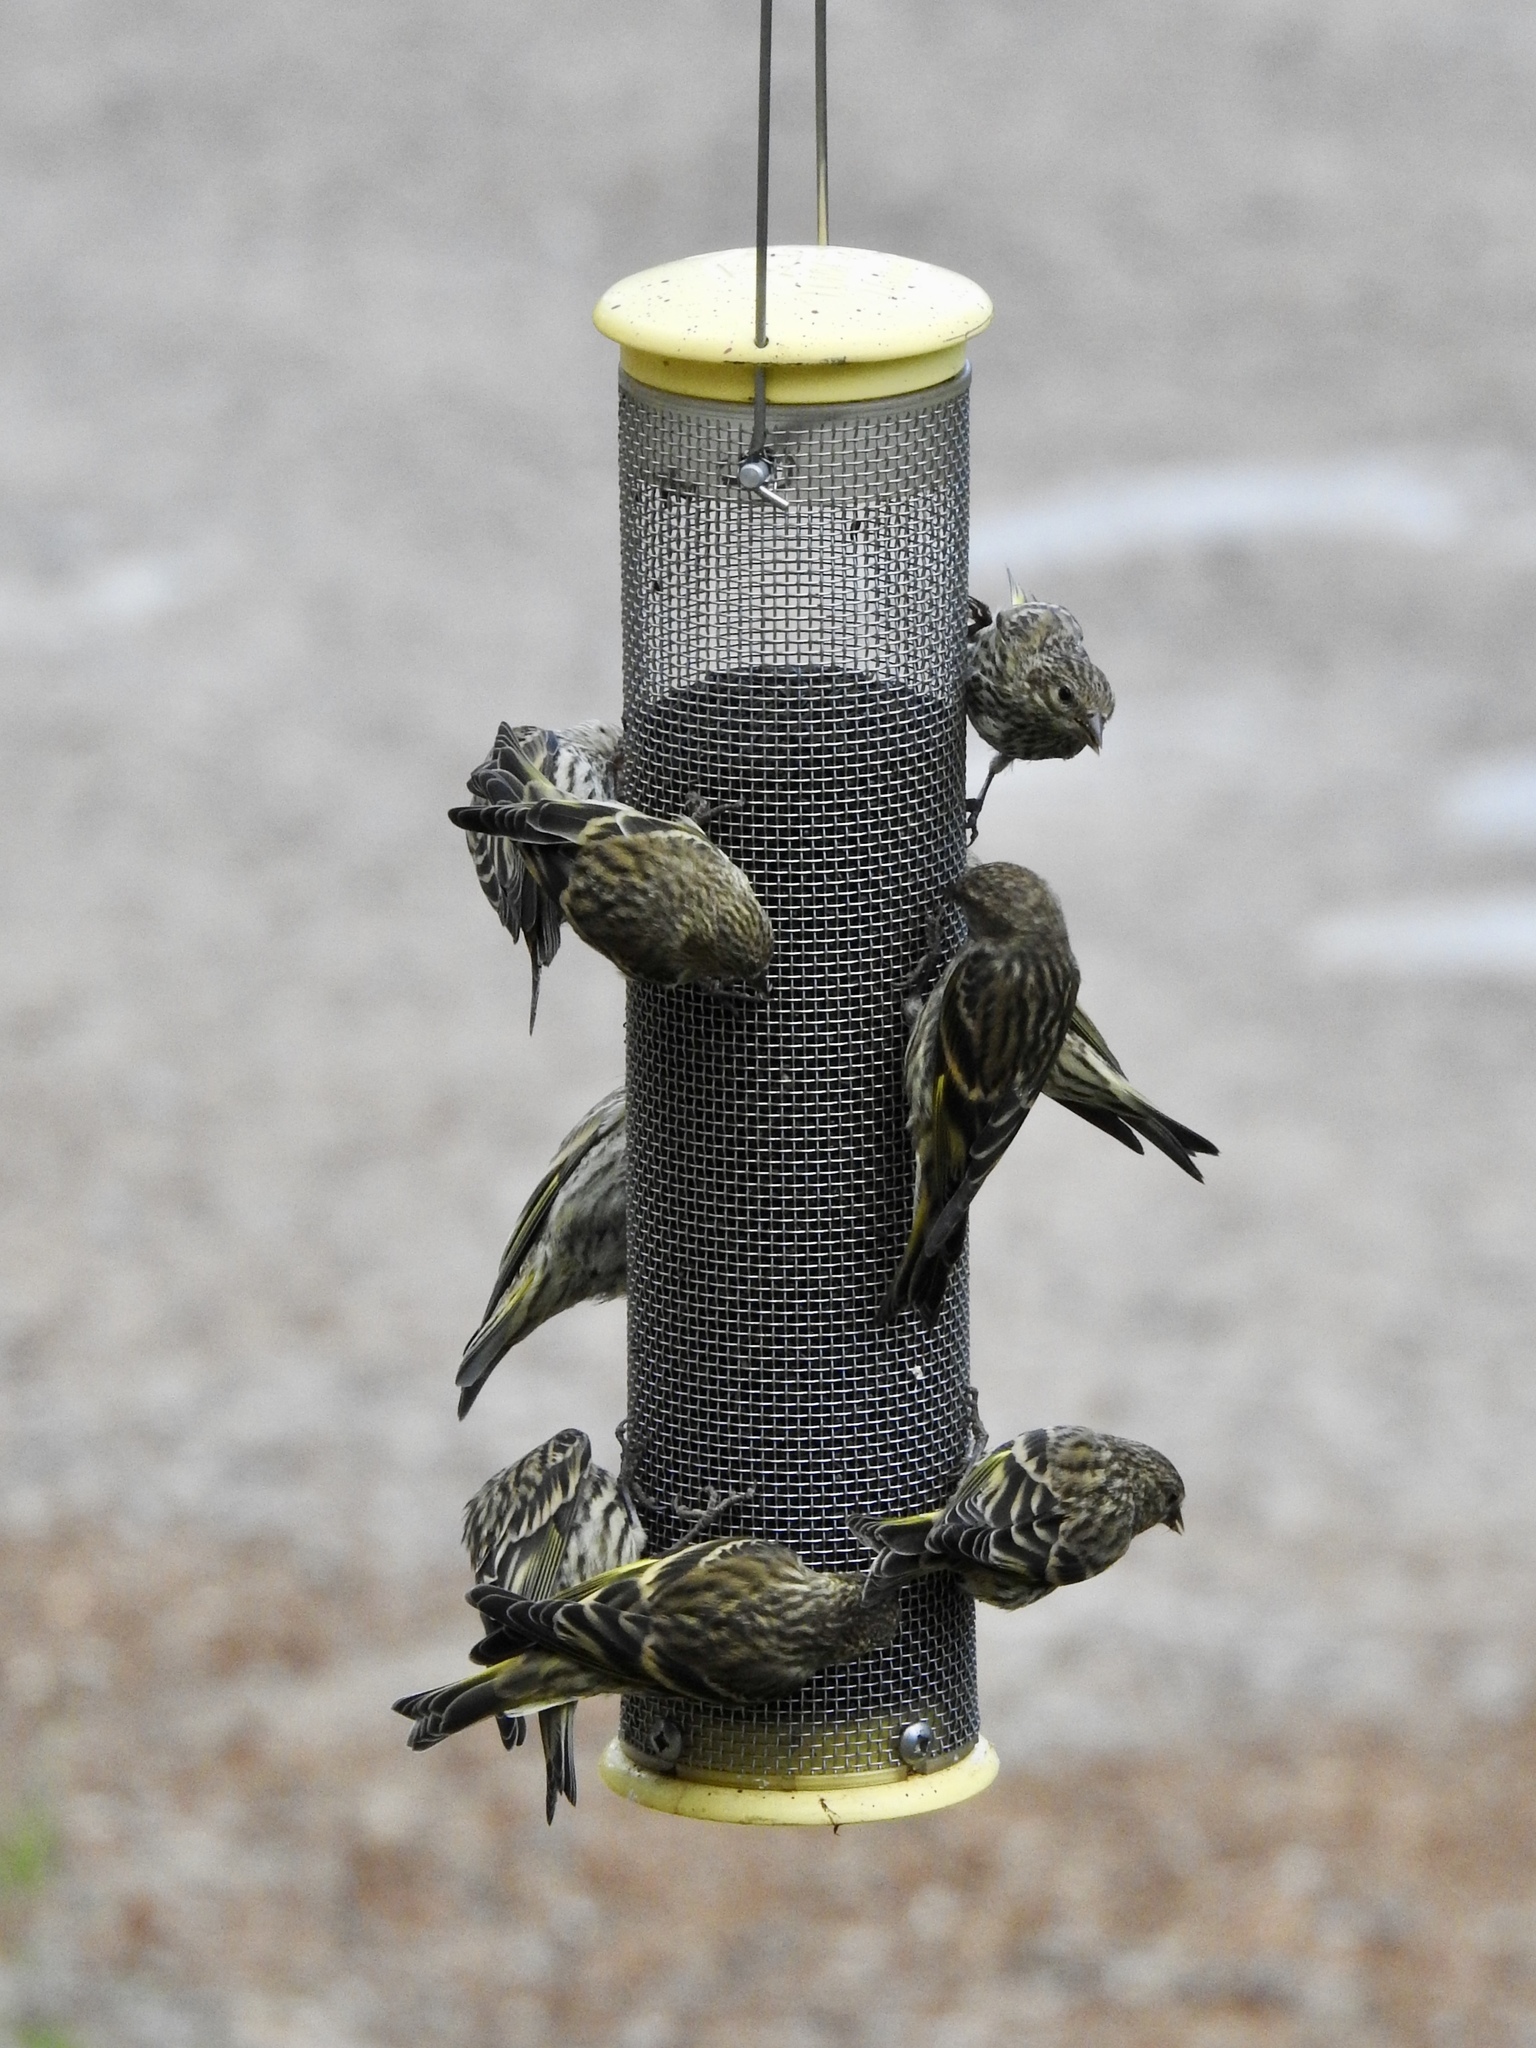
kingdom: Animalia
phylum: Chordata
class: Aves
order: Passeriformes
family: Fringillidae
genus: Spinus
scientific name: Spinus pinus
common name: Pine siskin
